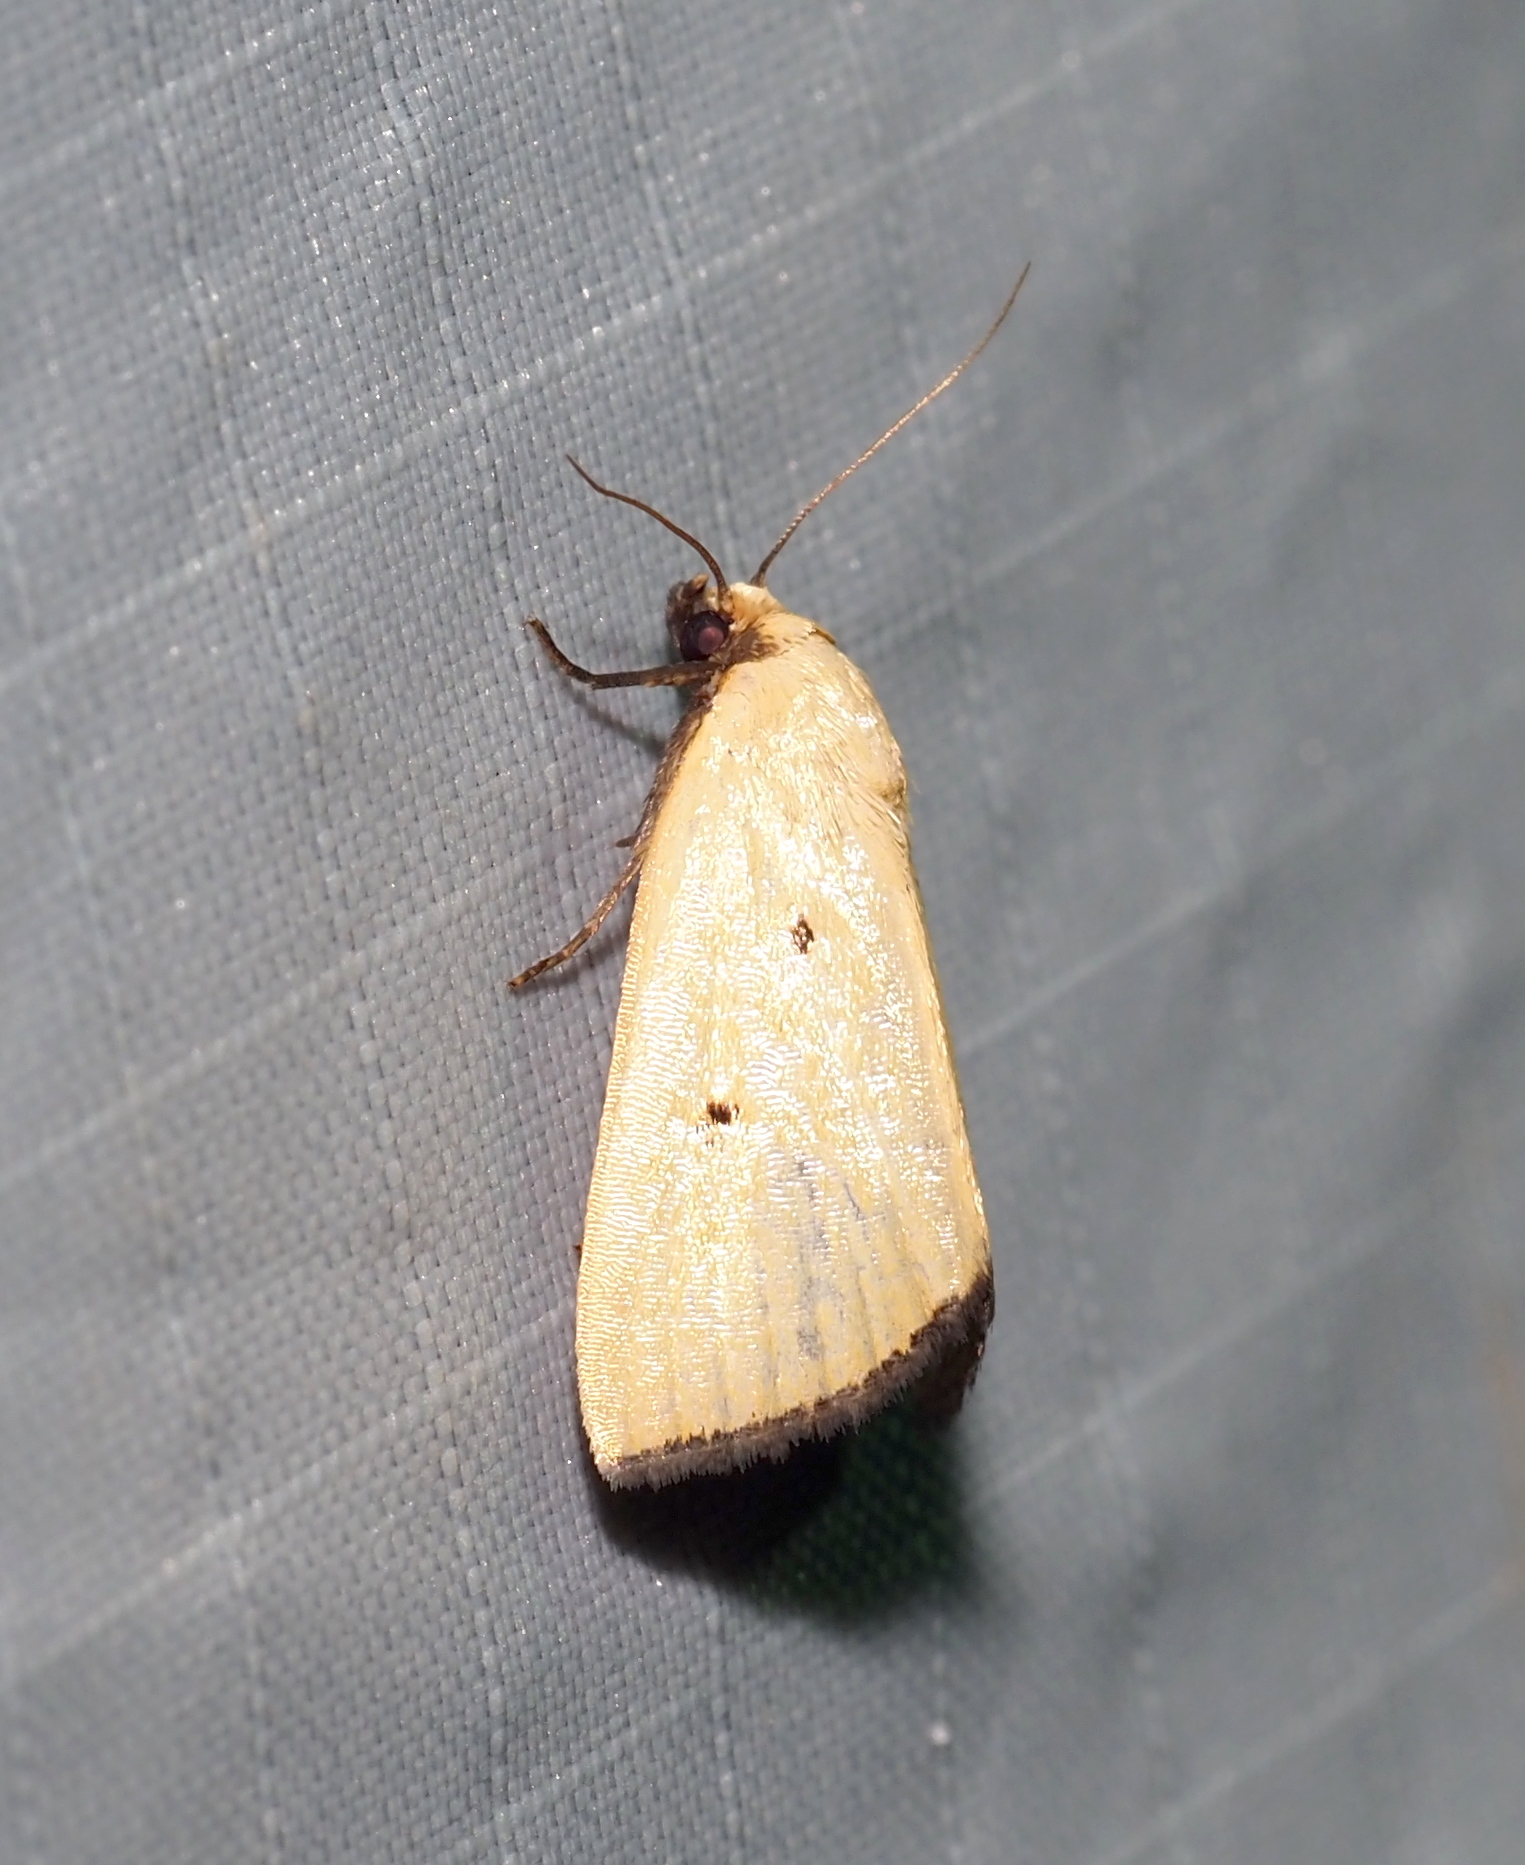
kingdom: Animalia
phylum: Arthropoda
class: Insecta
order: Lepidoptera
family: Noctuidae
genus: Marimatha
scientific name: Marimatha nigrofimbria
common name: Black-bordered lemon moth
